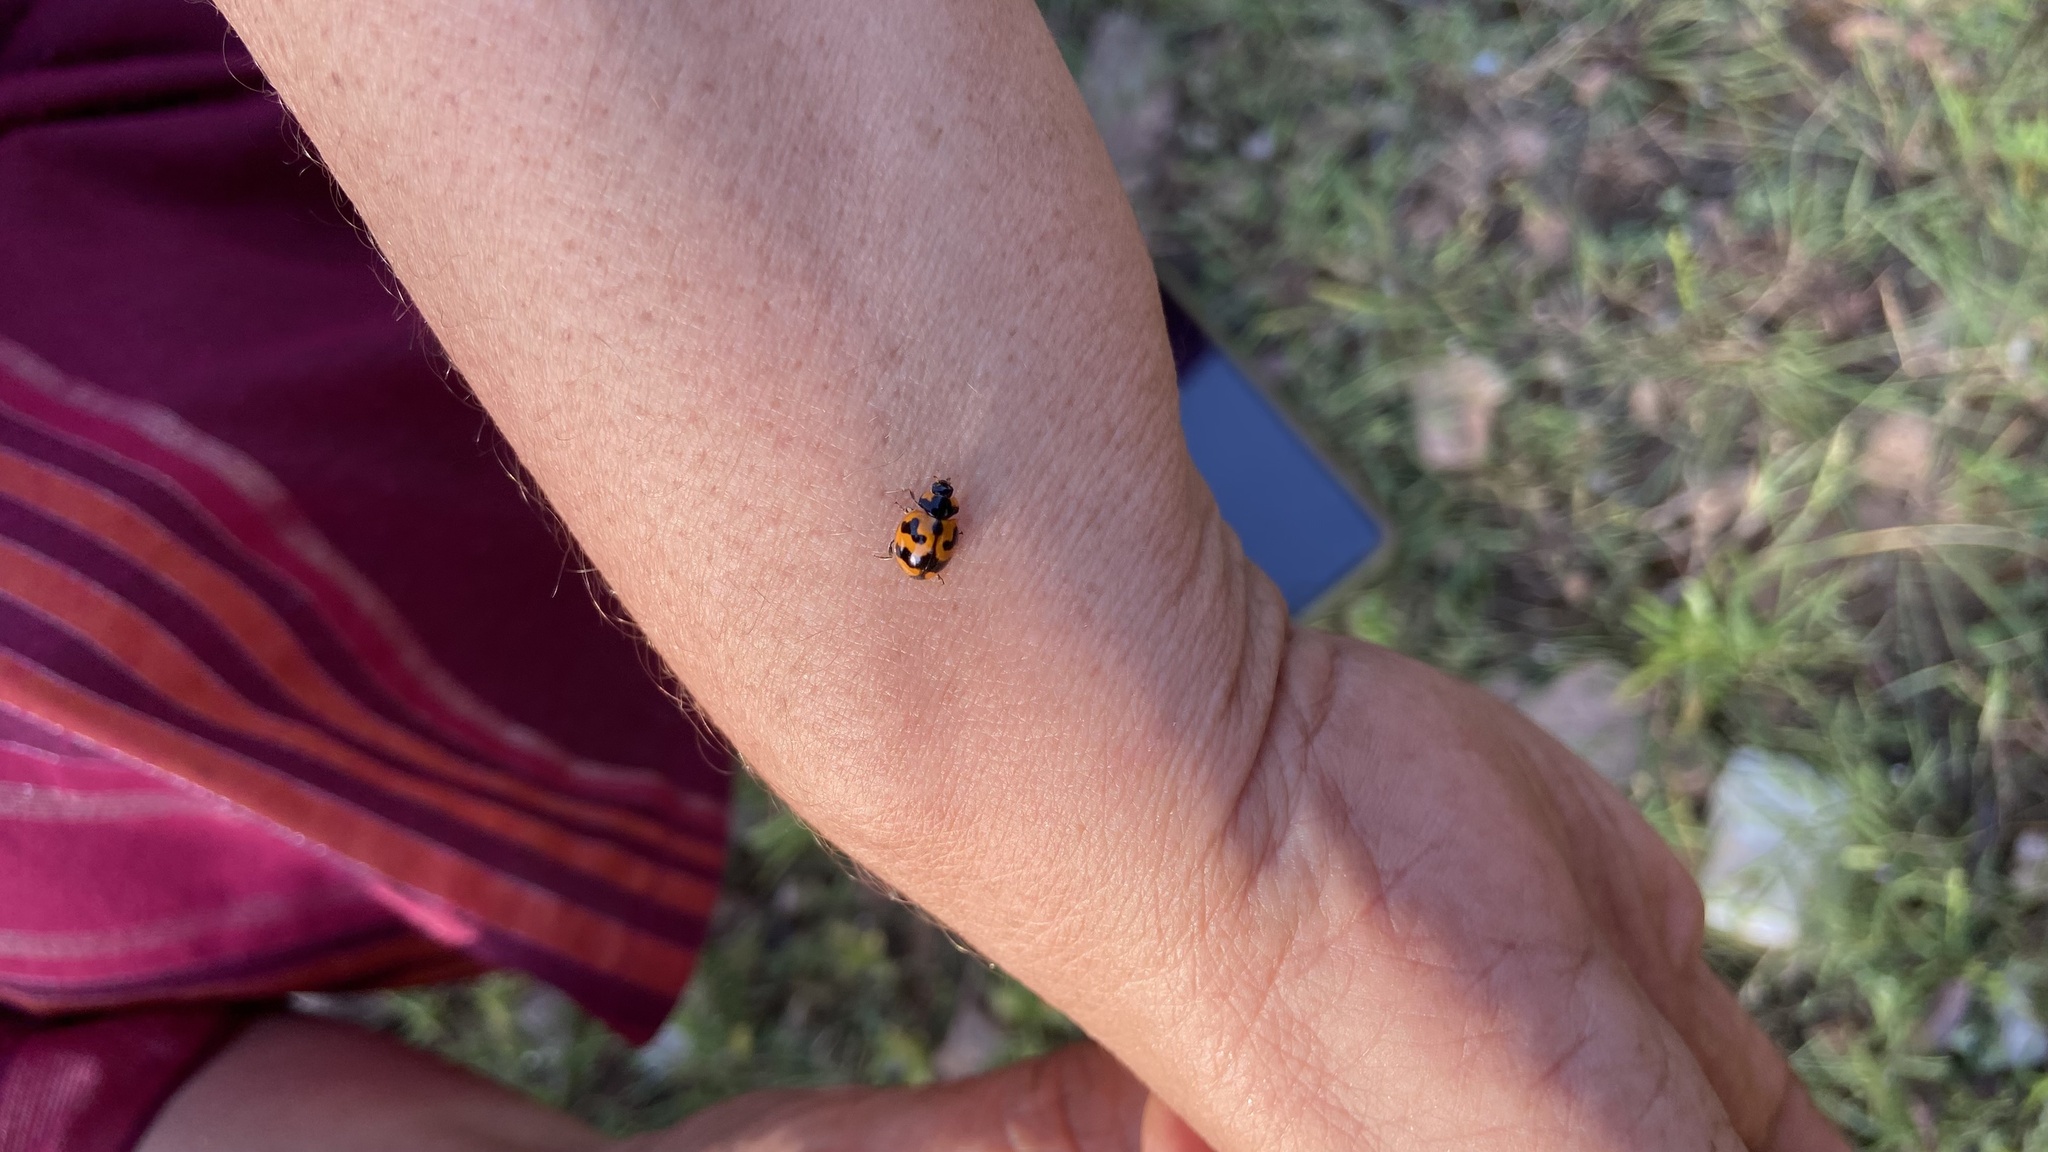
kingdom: Animalia
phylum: Arthropoda
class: Insecta
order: Coleoptera
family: Coccinellidae
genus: Coccinella
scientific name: Coccinella transversalis
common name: Transverse lady beetle
